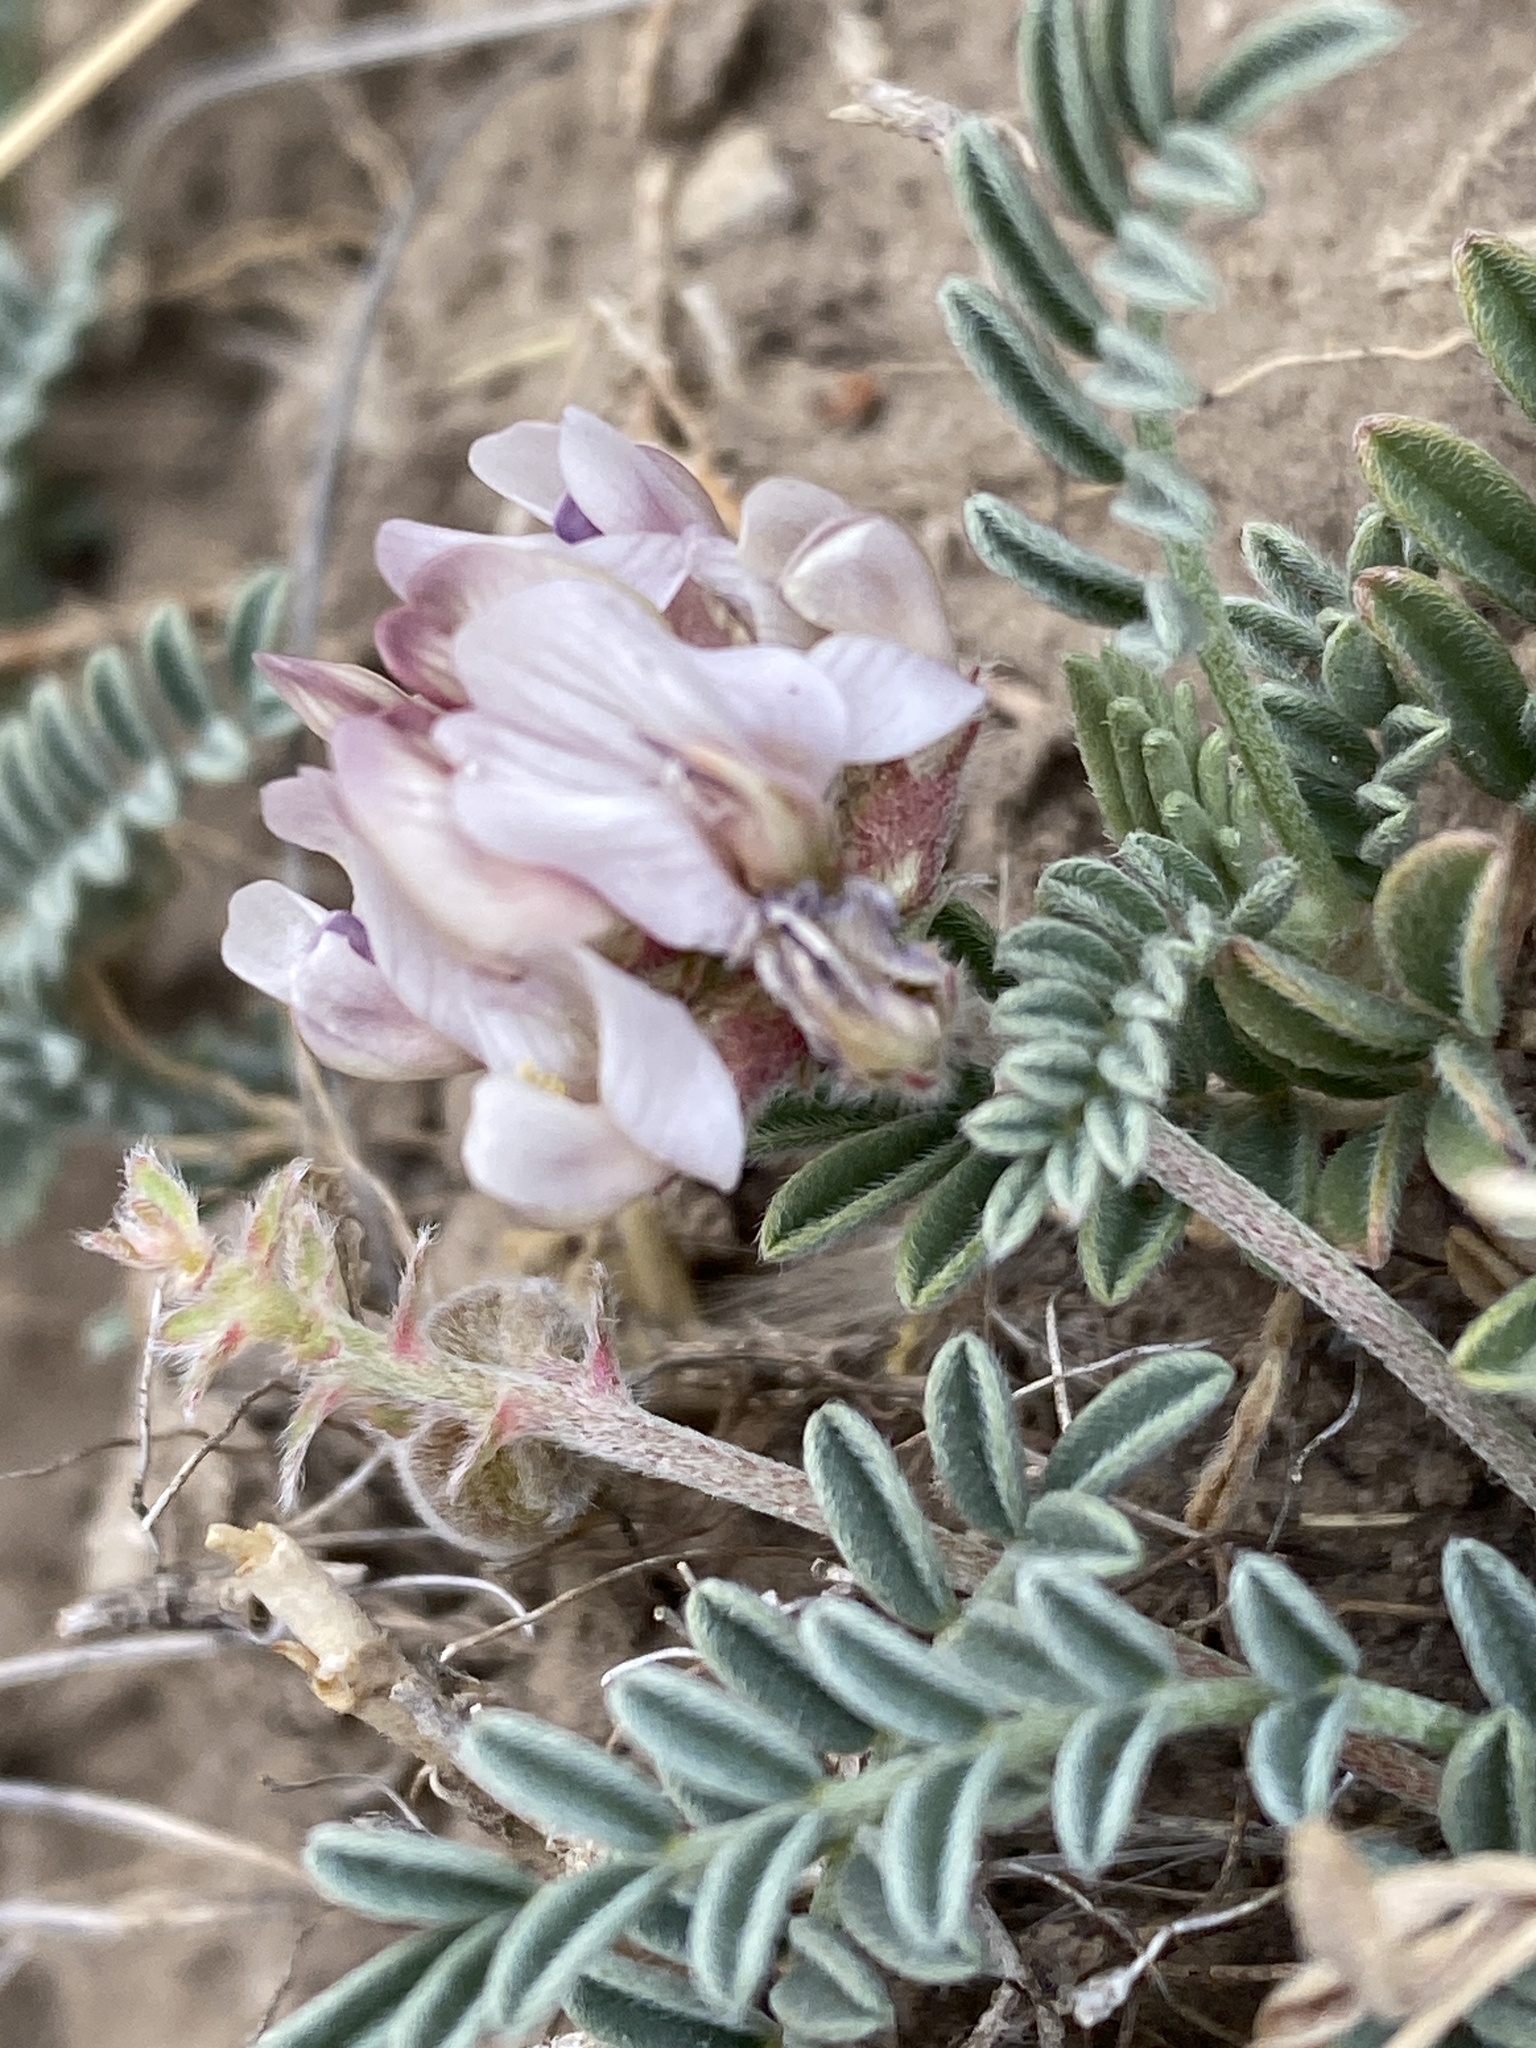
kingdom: Plantae
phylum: Tracheophyta
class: Magnoliopsida
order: Fabales
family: Fabaceae
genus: Astragalus
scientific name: Astragalus pictiformis
